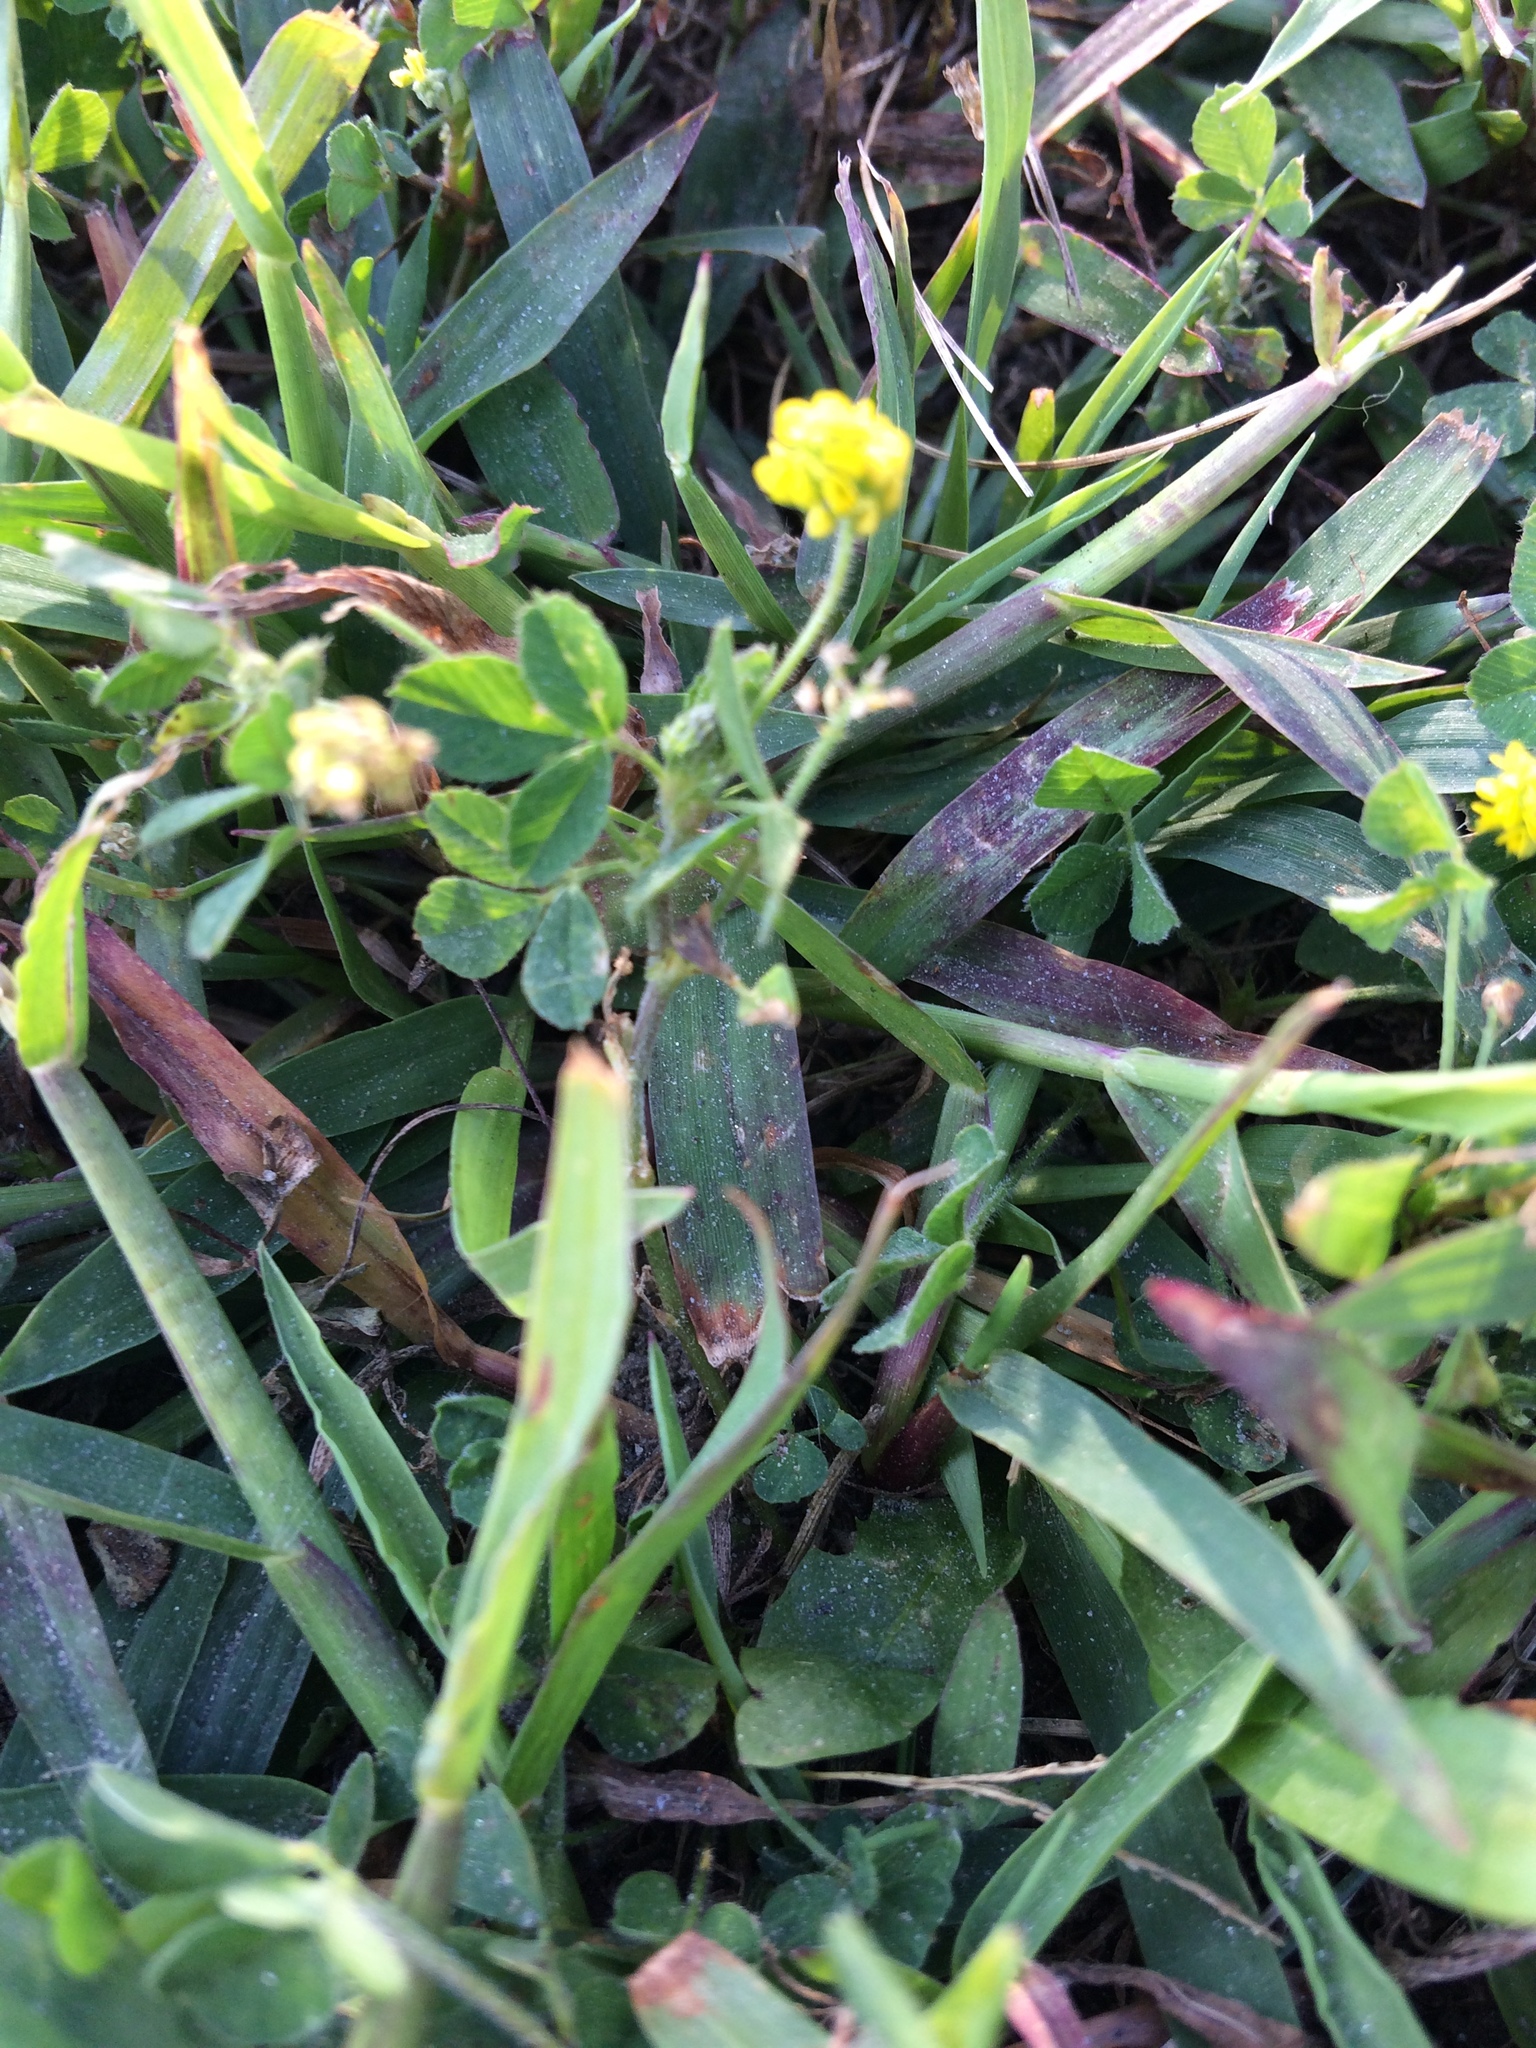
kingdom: Plantae
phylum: Tracheophyta
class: Magnoliopsida
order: Fabales
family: Fabaceae
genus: Medicago
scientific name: Medicago lupulina
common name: Black medick
